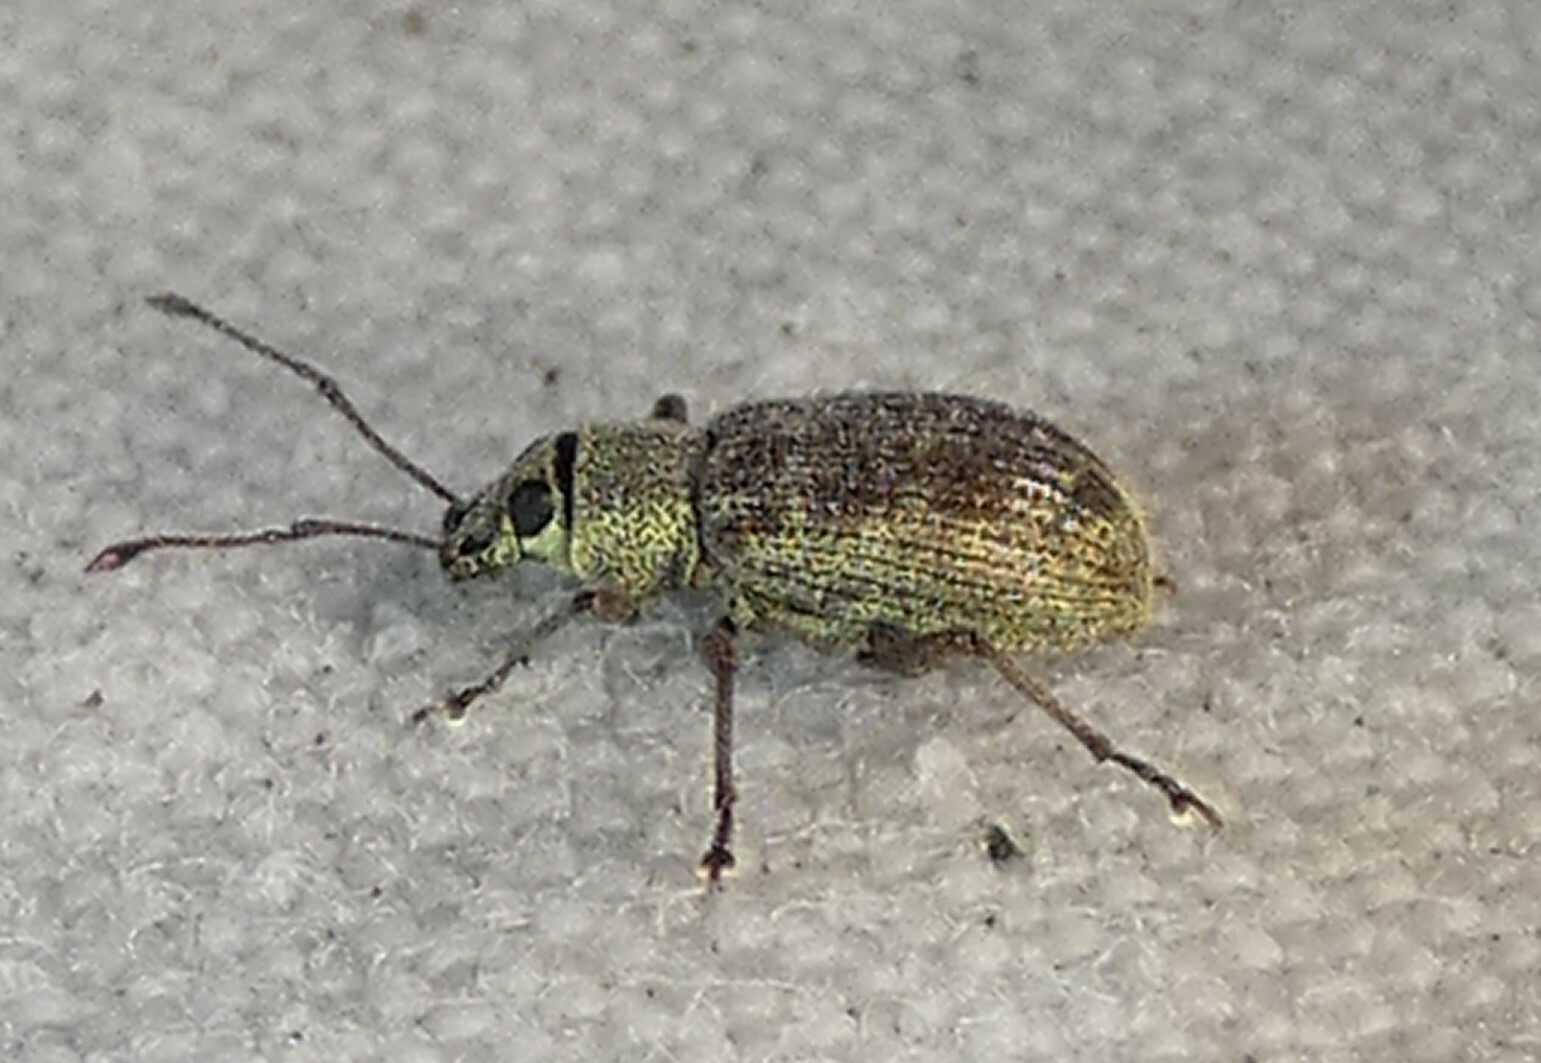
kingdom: Animalia
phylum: Arthropoda
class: Insecta
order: Coleoptera
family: Curculionidae
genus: Cyrtepistomus
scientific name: Cyrtepistomus castaneus
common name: Weevil
